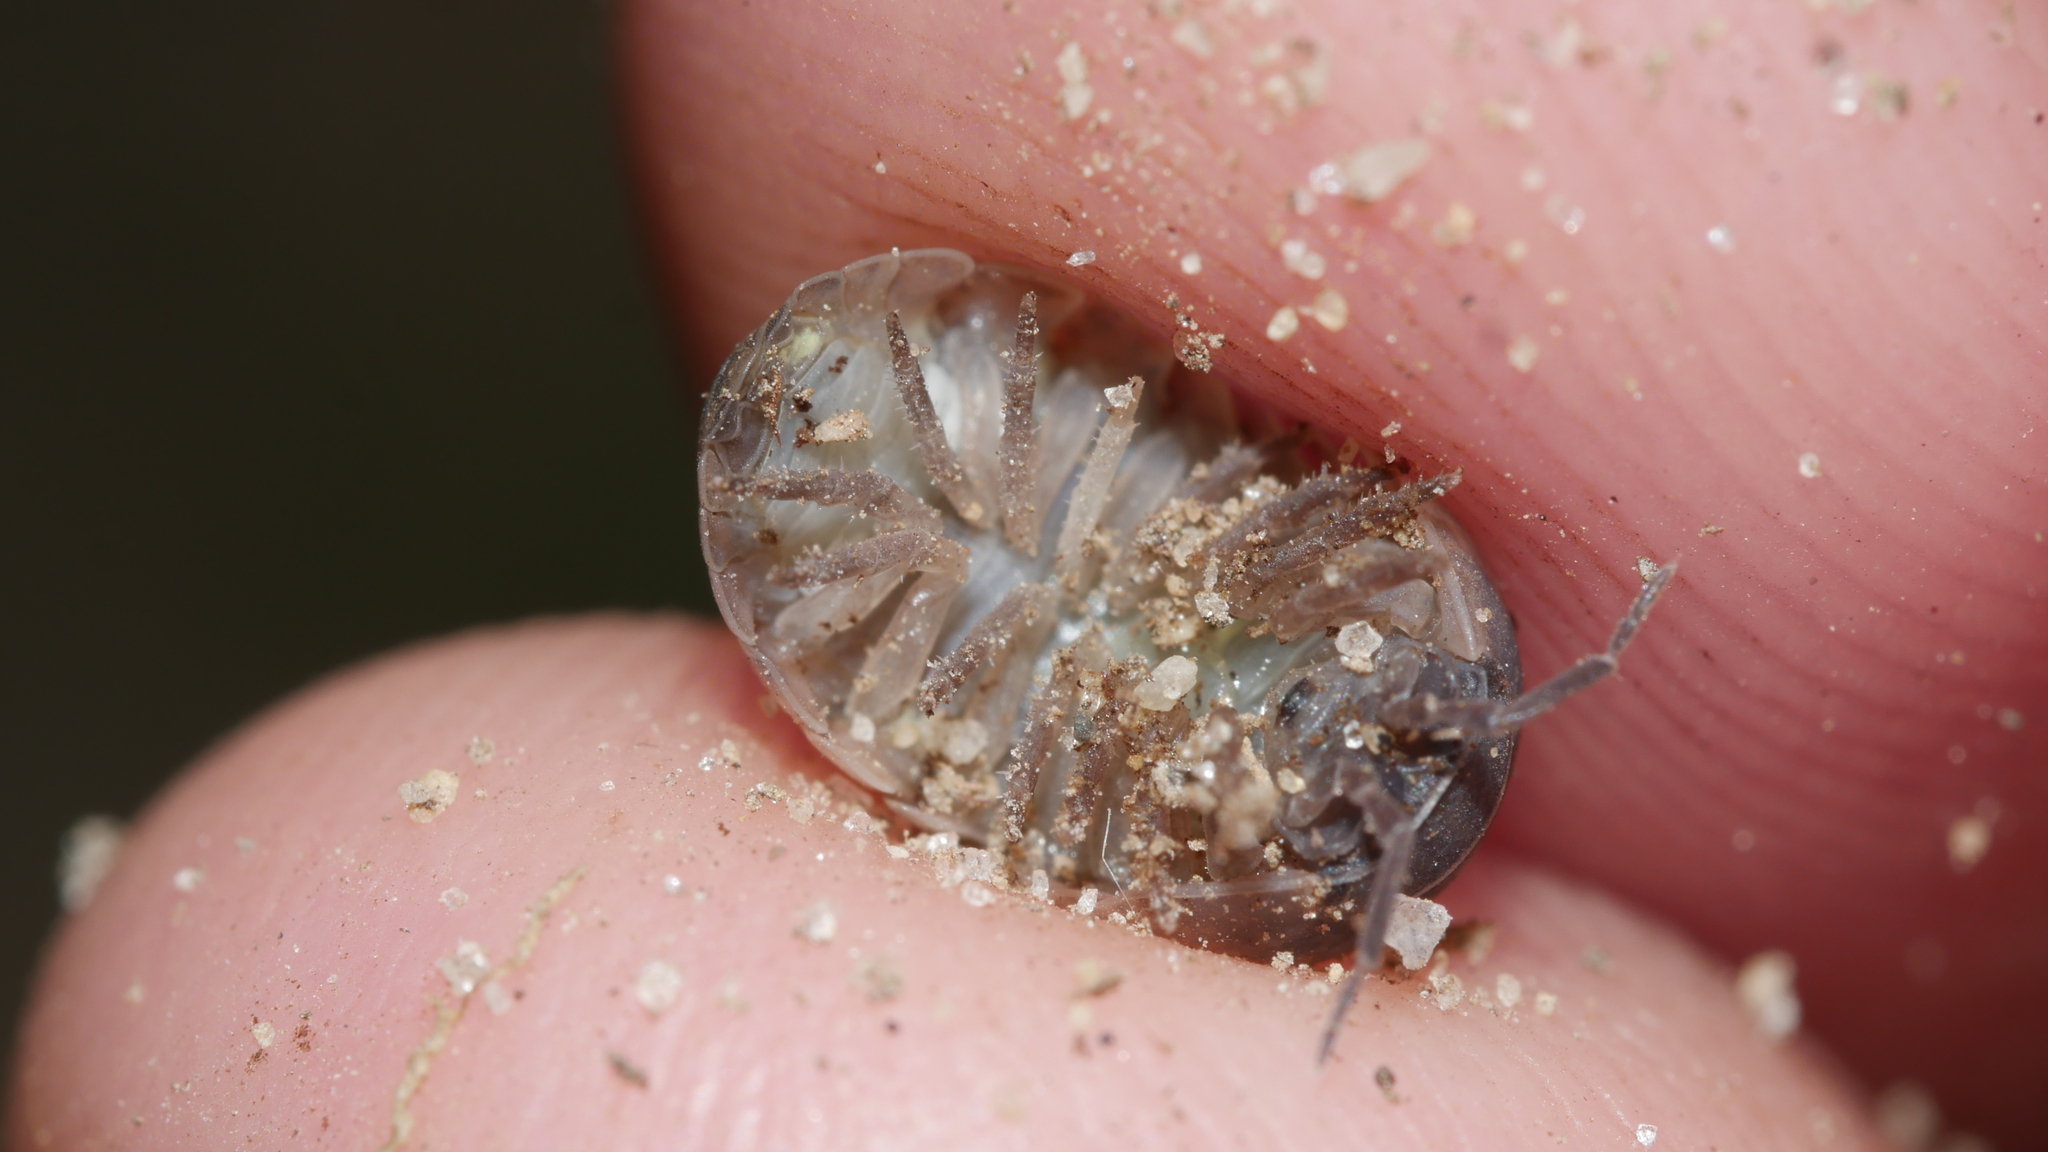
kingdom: Animalia
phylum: Arthropoda
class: Malacostraca
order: Isopoda
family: Armadillidiidae
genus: Armadillidium
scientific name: Armadillidium vulgare
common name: Common pill woodlouse
